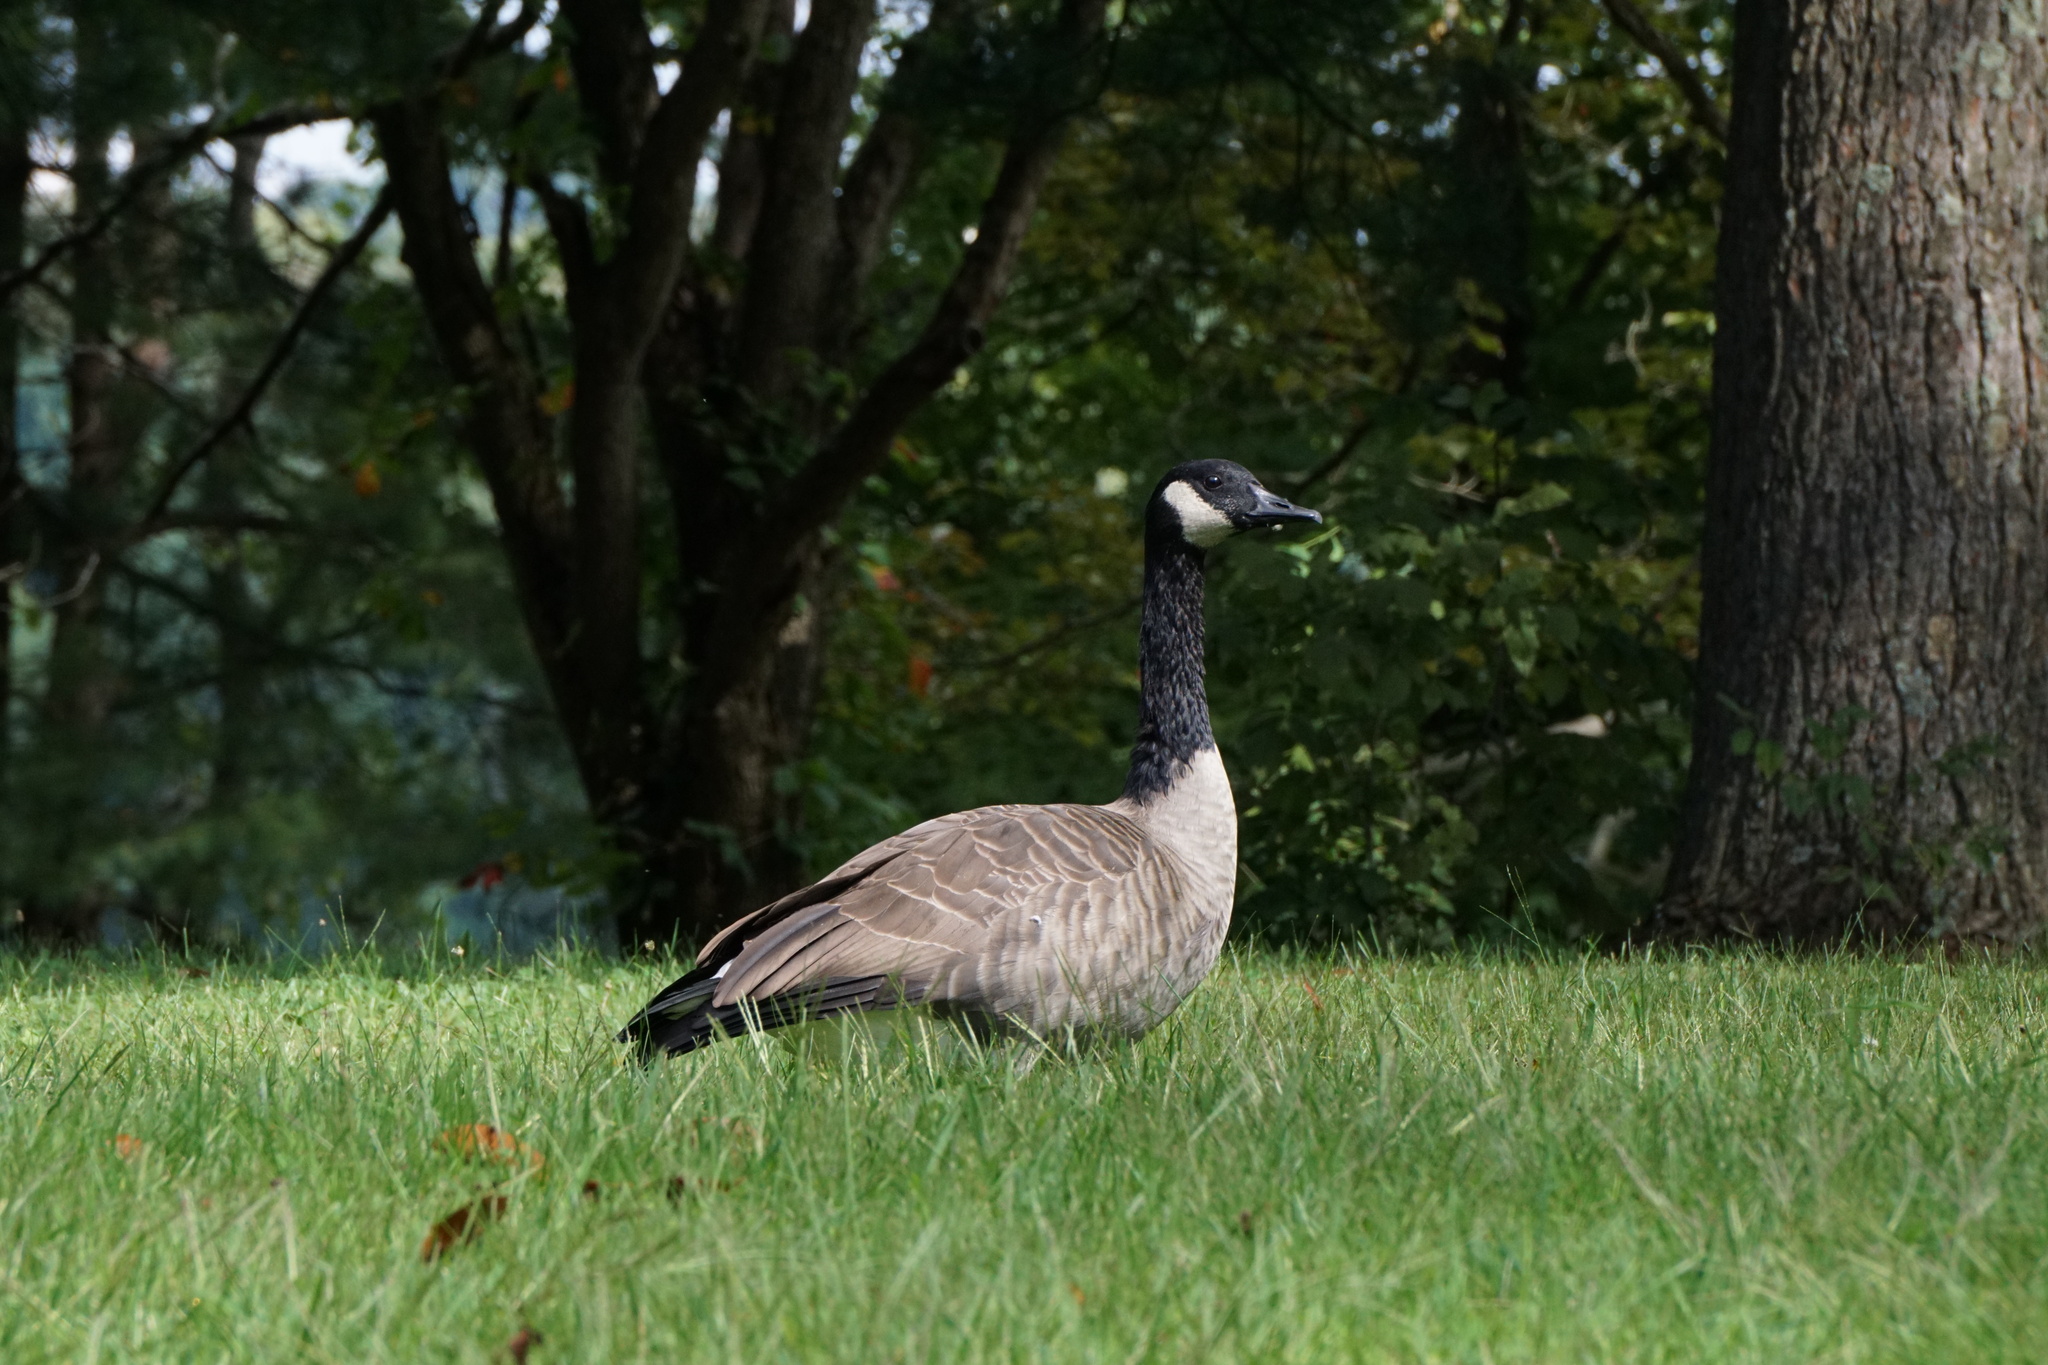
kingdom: Animalia
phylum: Chordata
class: Aves
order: Anseriformes
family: Anatidae
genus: Branta
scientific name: Branta canadensis
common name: Canada goose
